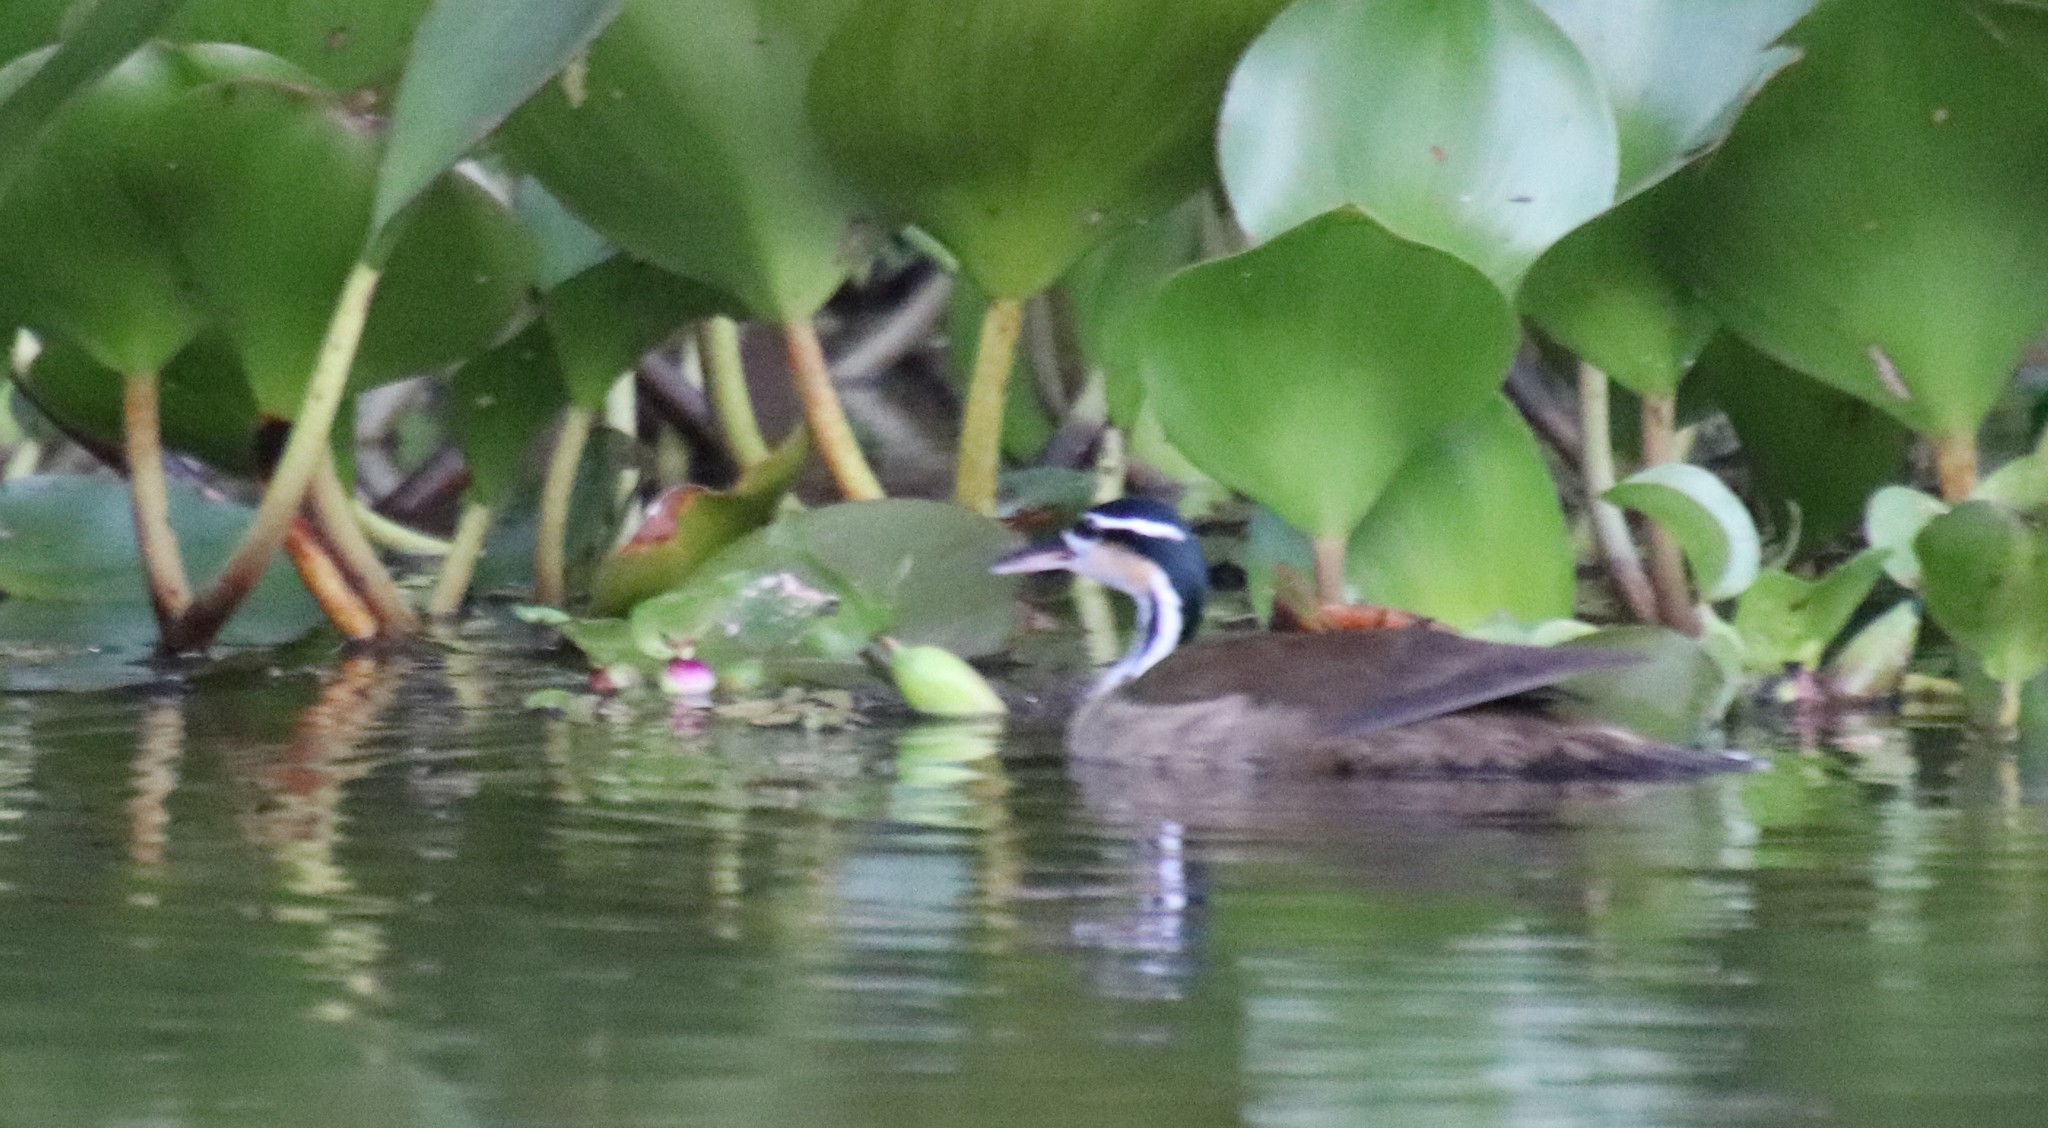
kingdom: Animalia
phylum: Chordata
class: Aves
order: Gruiformes
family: Heliornithidae
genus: Heliornis
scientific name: Heliornis fulica
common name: Sungrebe
